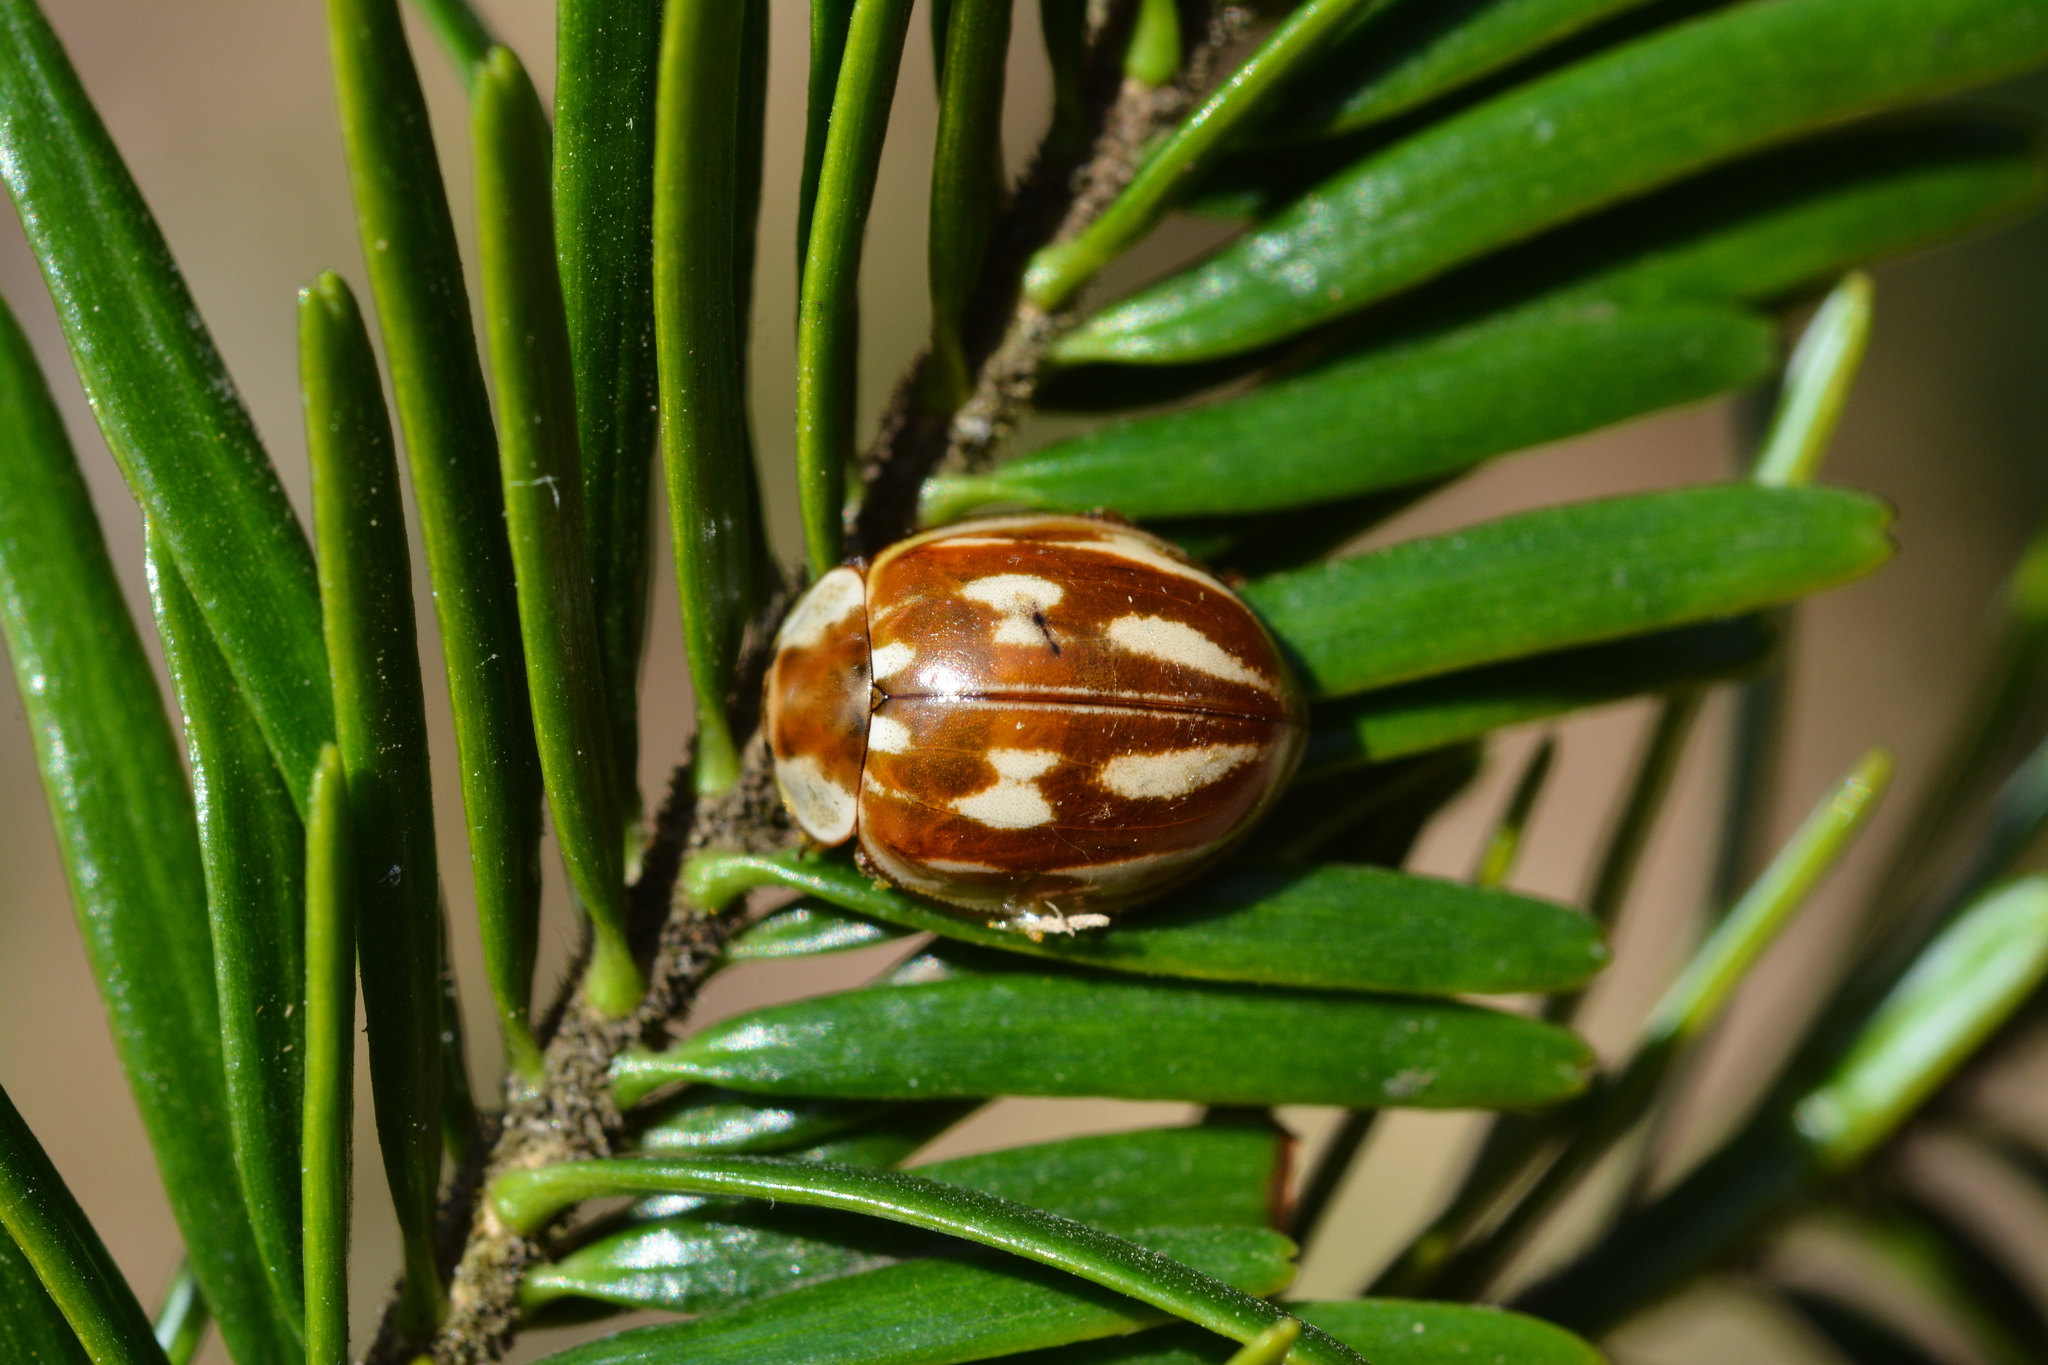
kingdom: Animalia
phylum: Arthropoda
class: Insecta
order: Coleoptera
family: Coccinellidae
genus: Myzia
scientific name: Myzia oblongoguttata
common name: Striped ladybird
